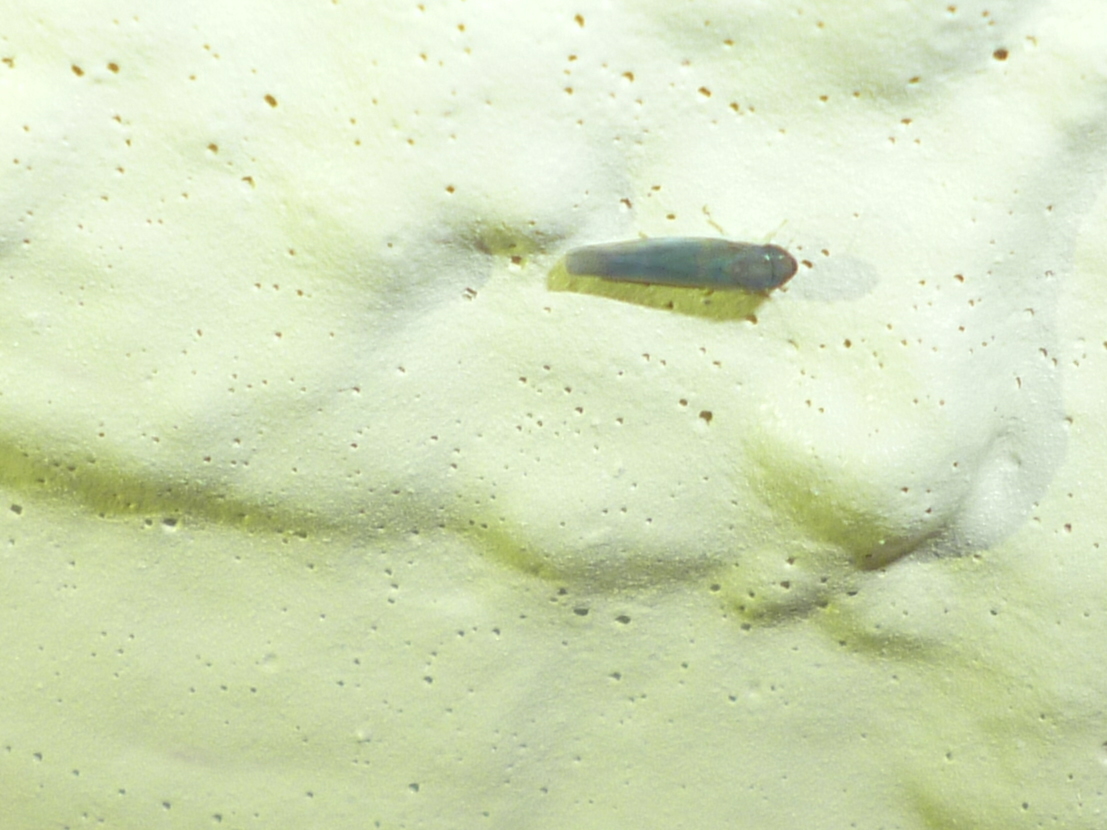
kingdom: Animalia
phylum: Arthropoda
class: Insecta
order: Hemiptera
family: Cicadellidae
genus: Joruma
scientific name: Joruma pisca
